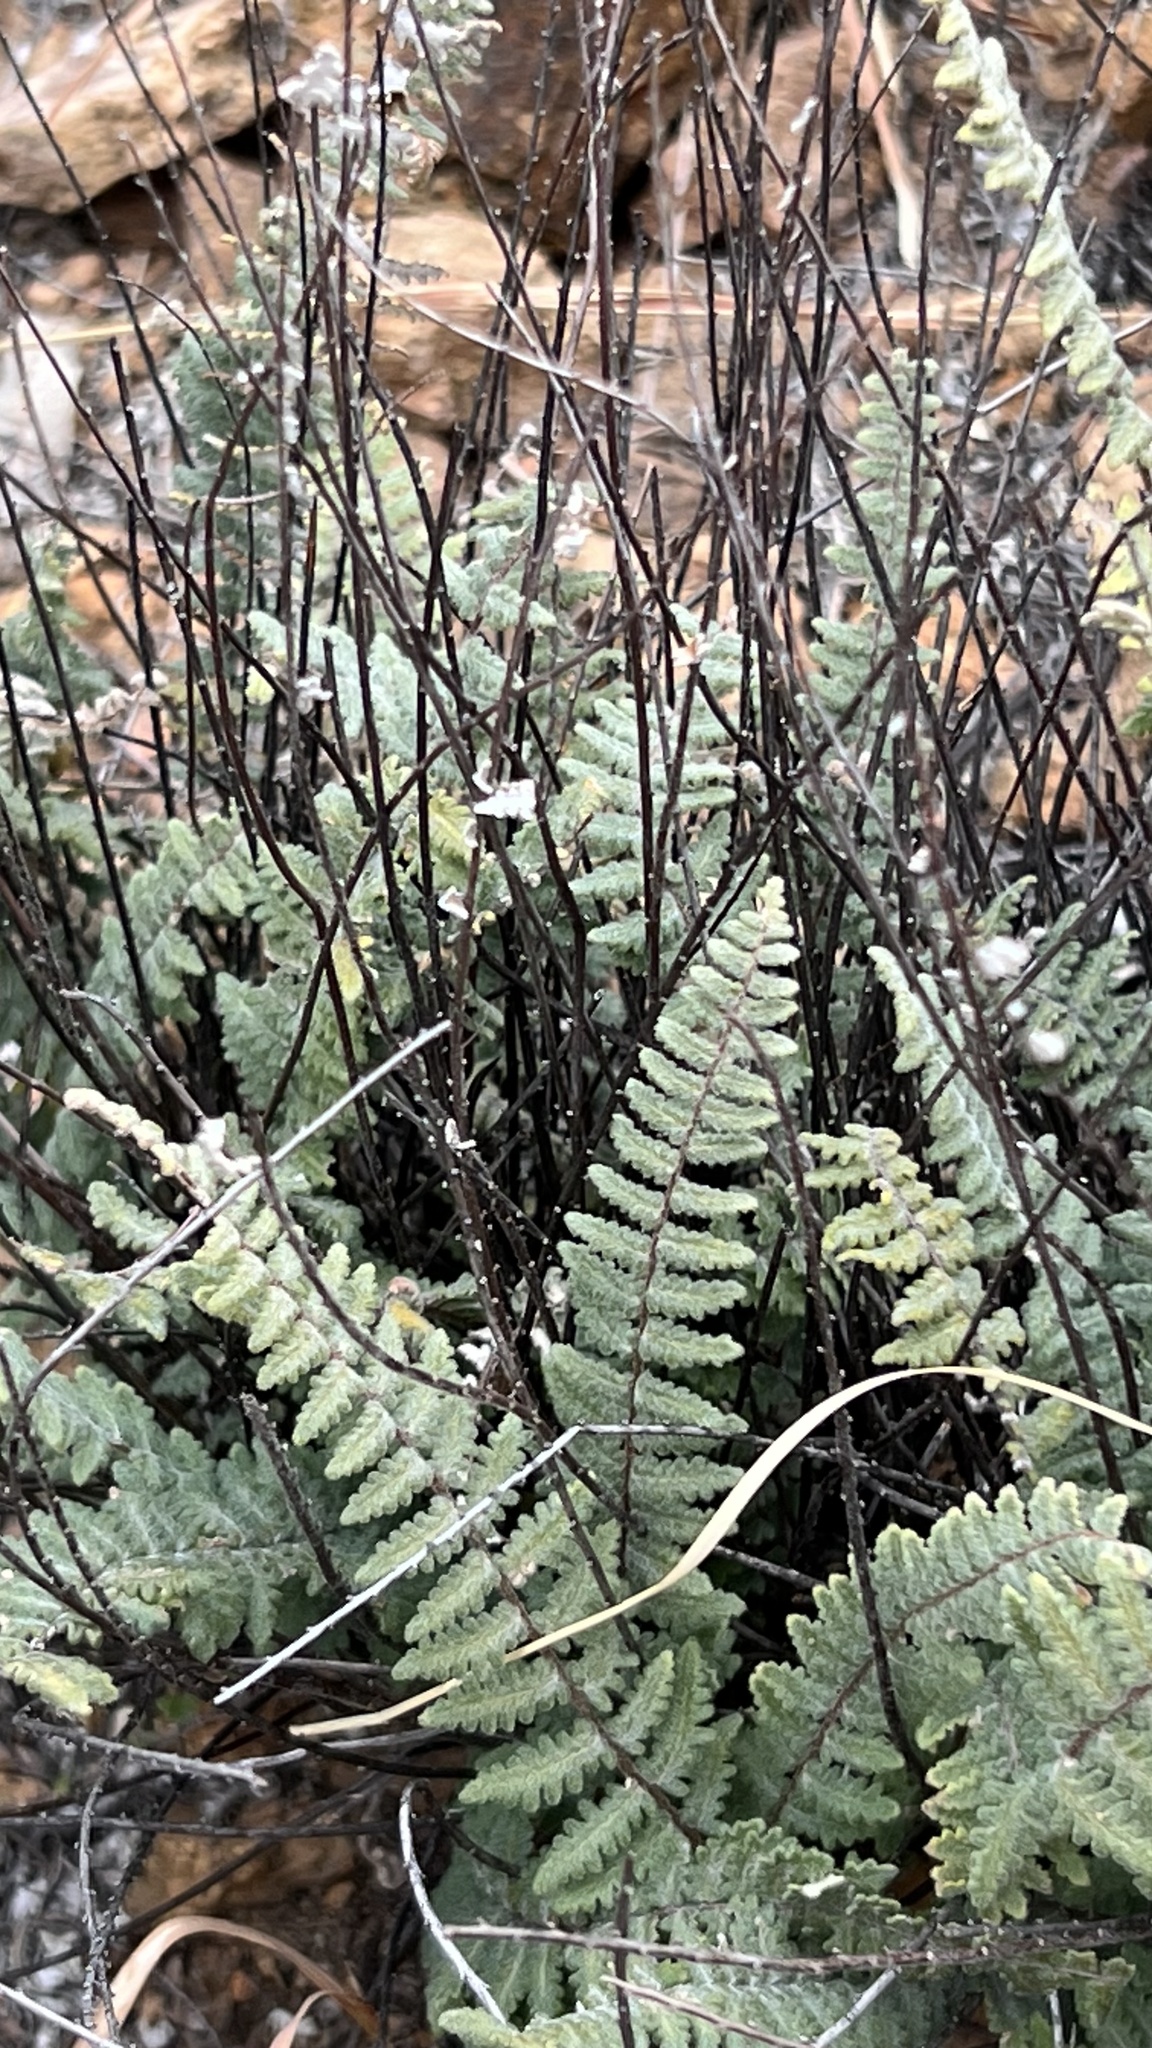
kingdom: Plantae
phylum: Tracheophyta
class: Polypodiopsida
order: Polypodiales
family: Pteridaceae
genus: Myriopteris
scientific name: Myriopteris aurea
